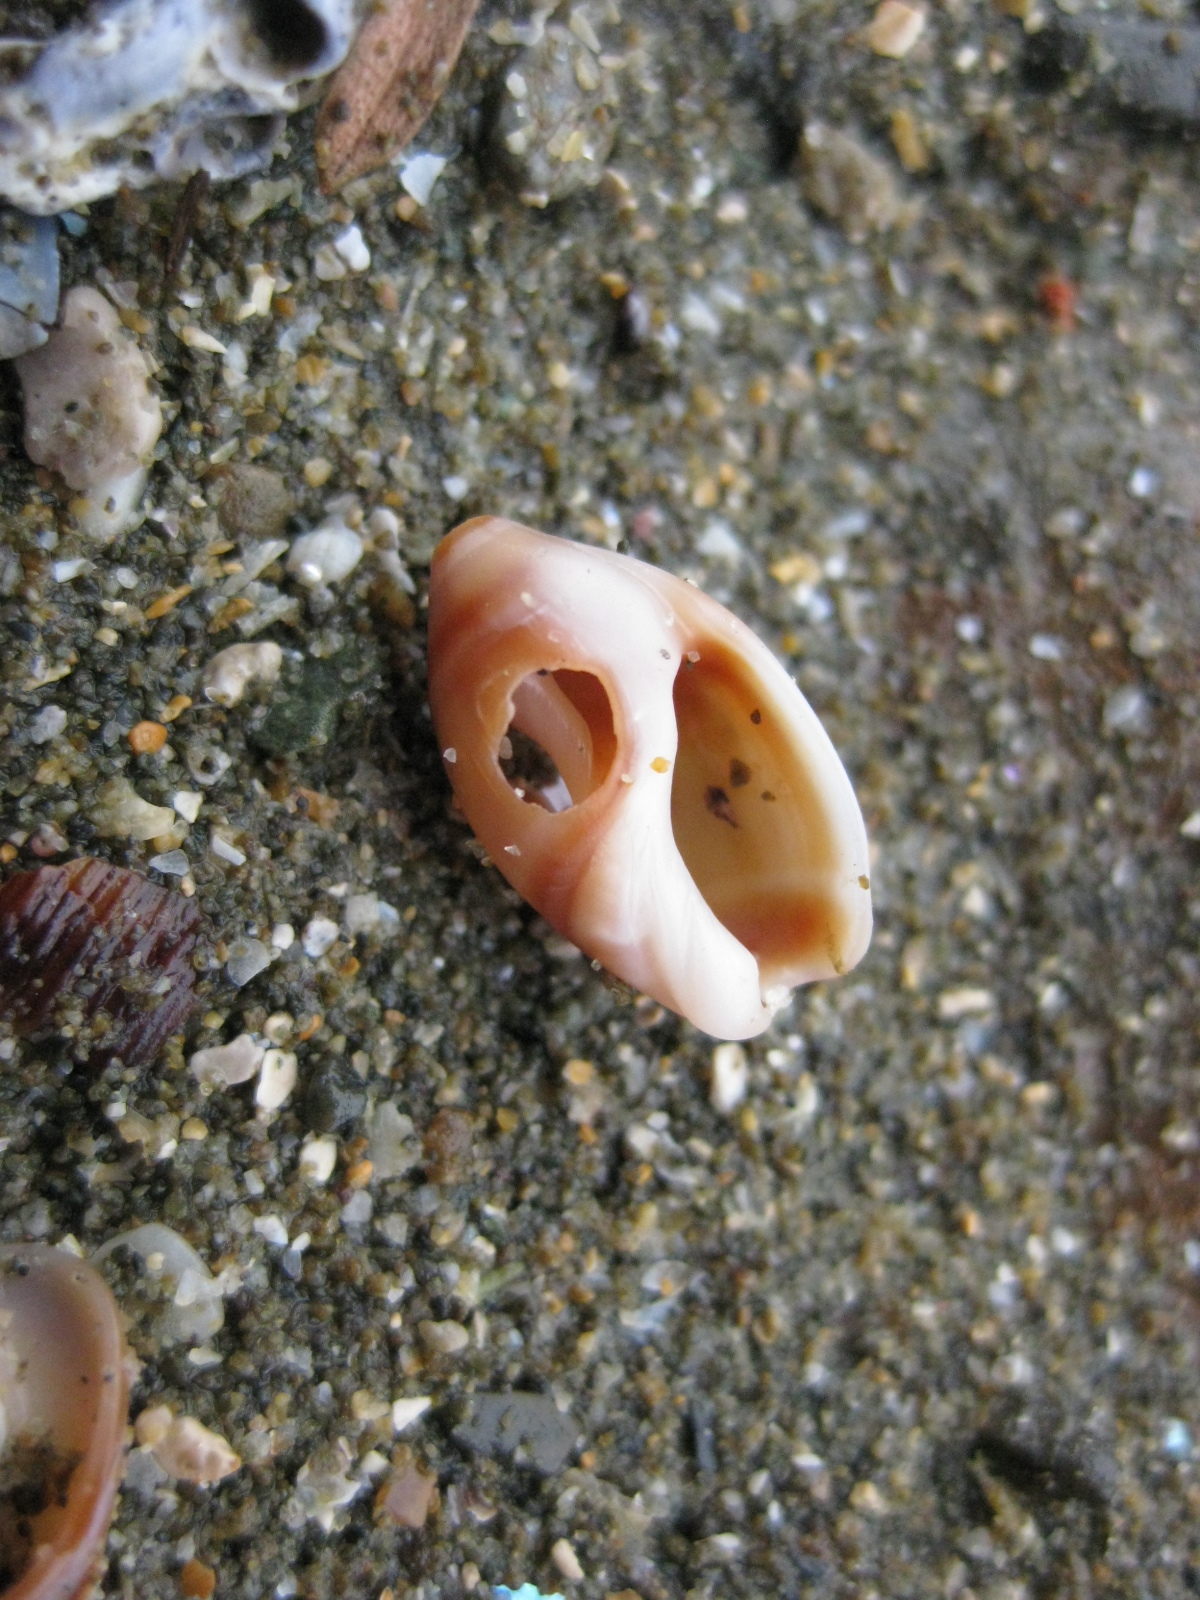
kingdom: Animalia
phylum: Mollusca
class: Gastropoda
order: Neogastropoda
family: Ancillariidae
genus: Amalda
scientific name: Amalda depressa
